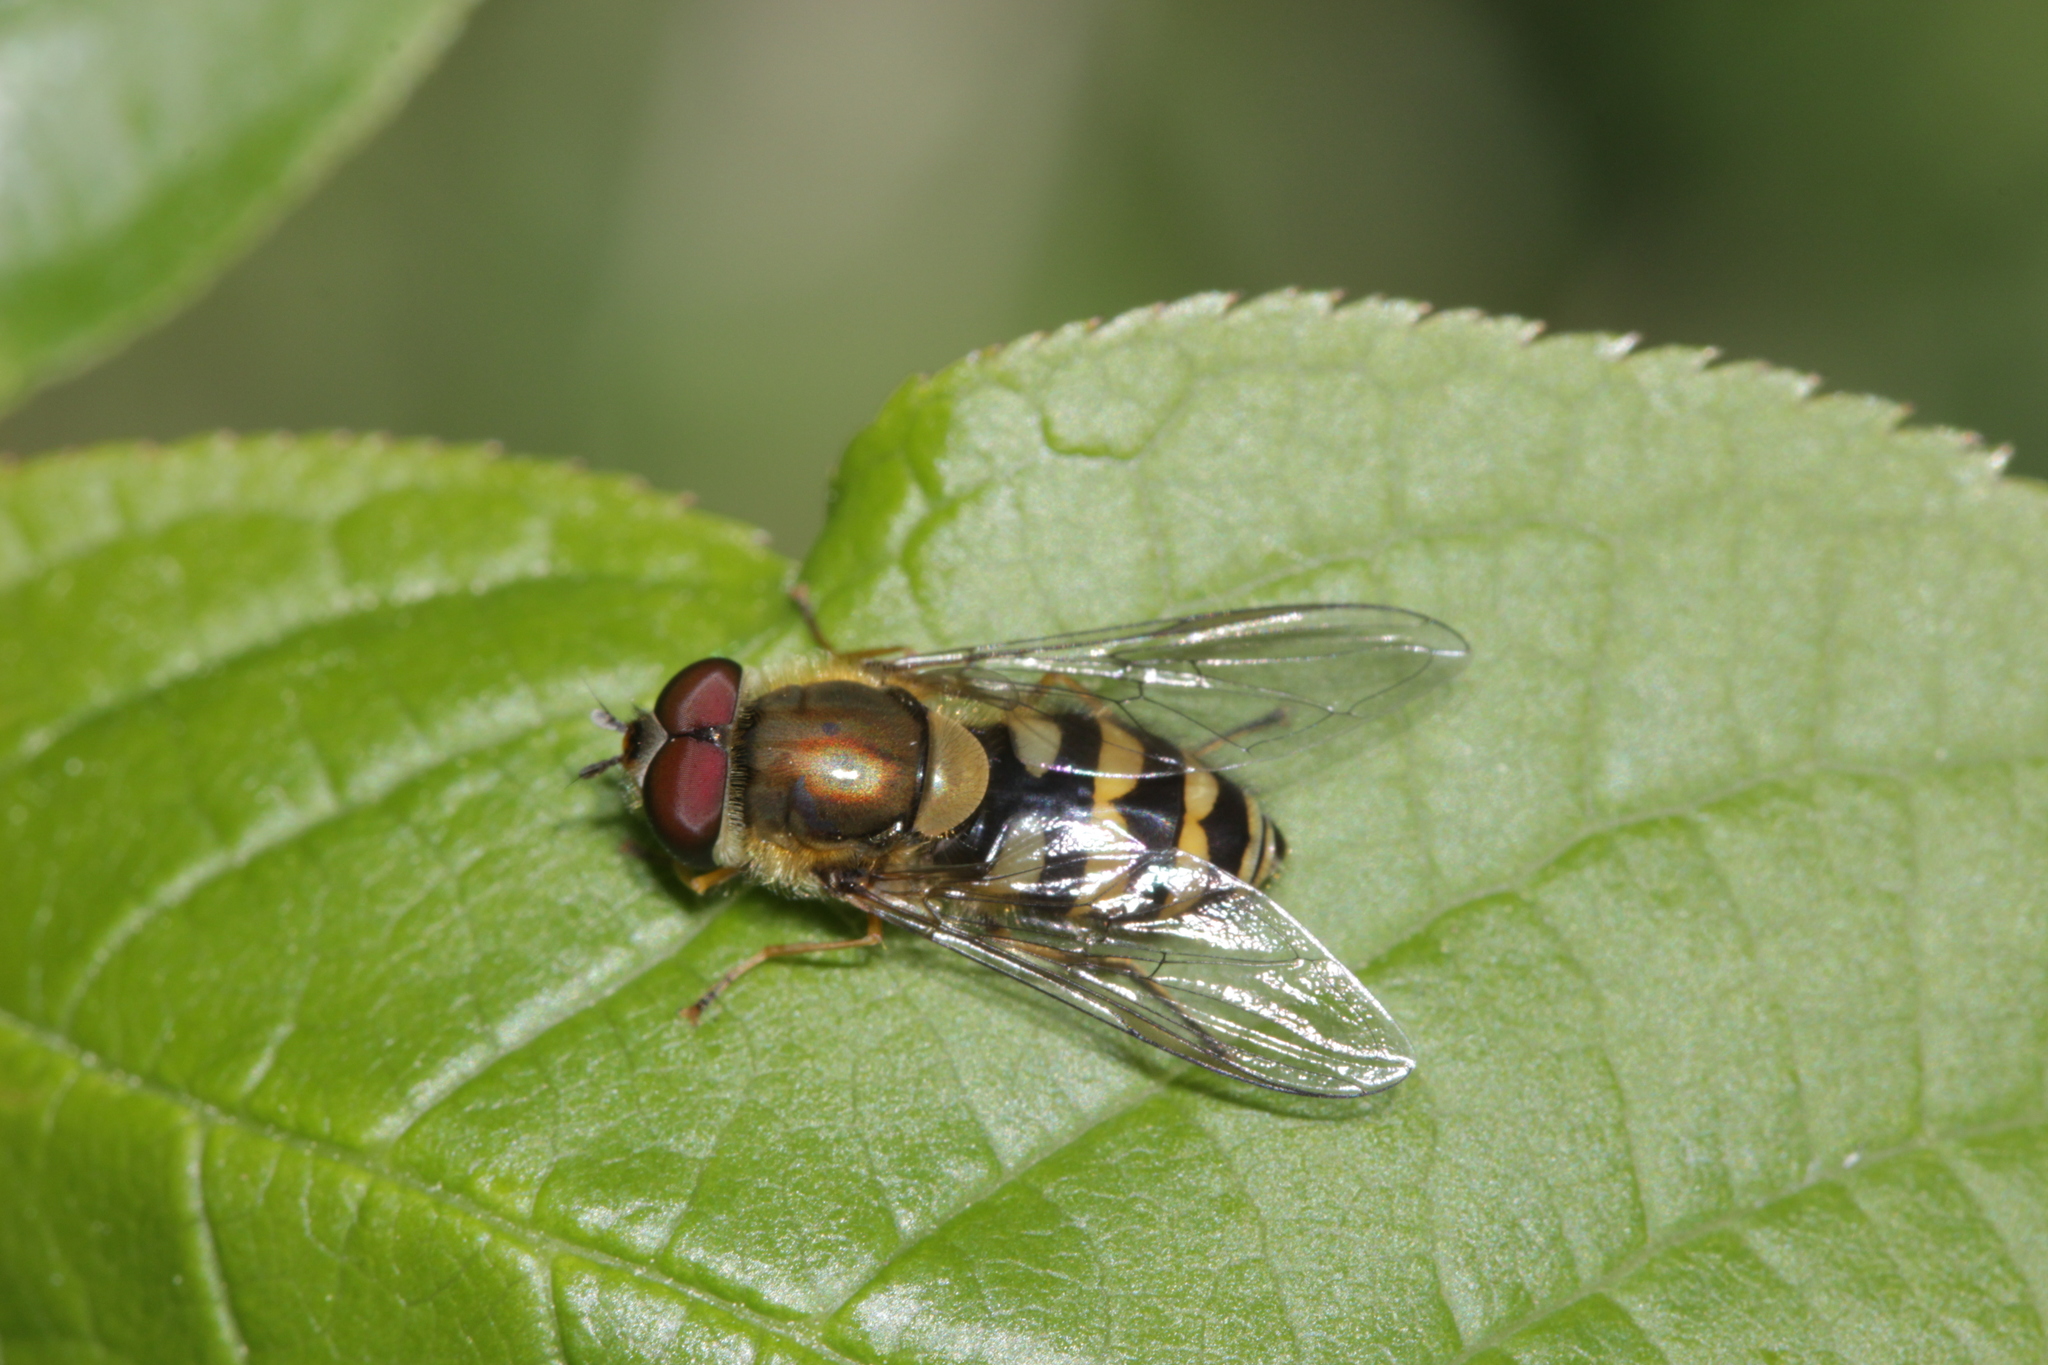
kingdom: Animalia
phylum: Arthropoda
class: Insecta
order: Diptera
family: Syrphidae
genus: Syrphus
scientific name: Syrphus
